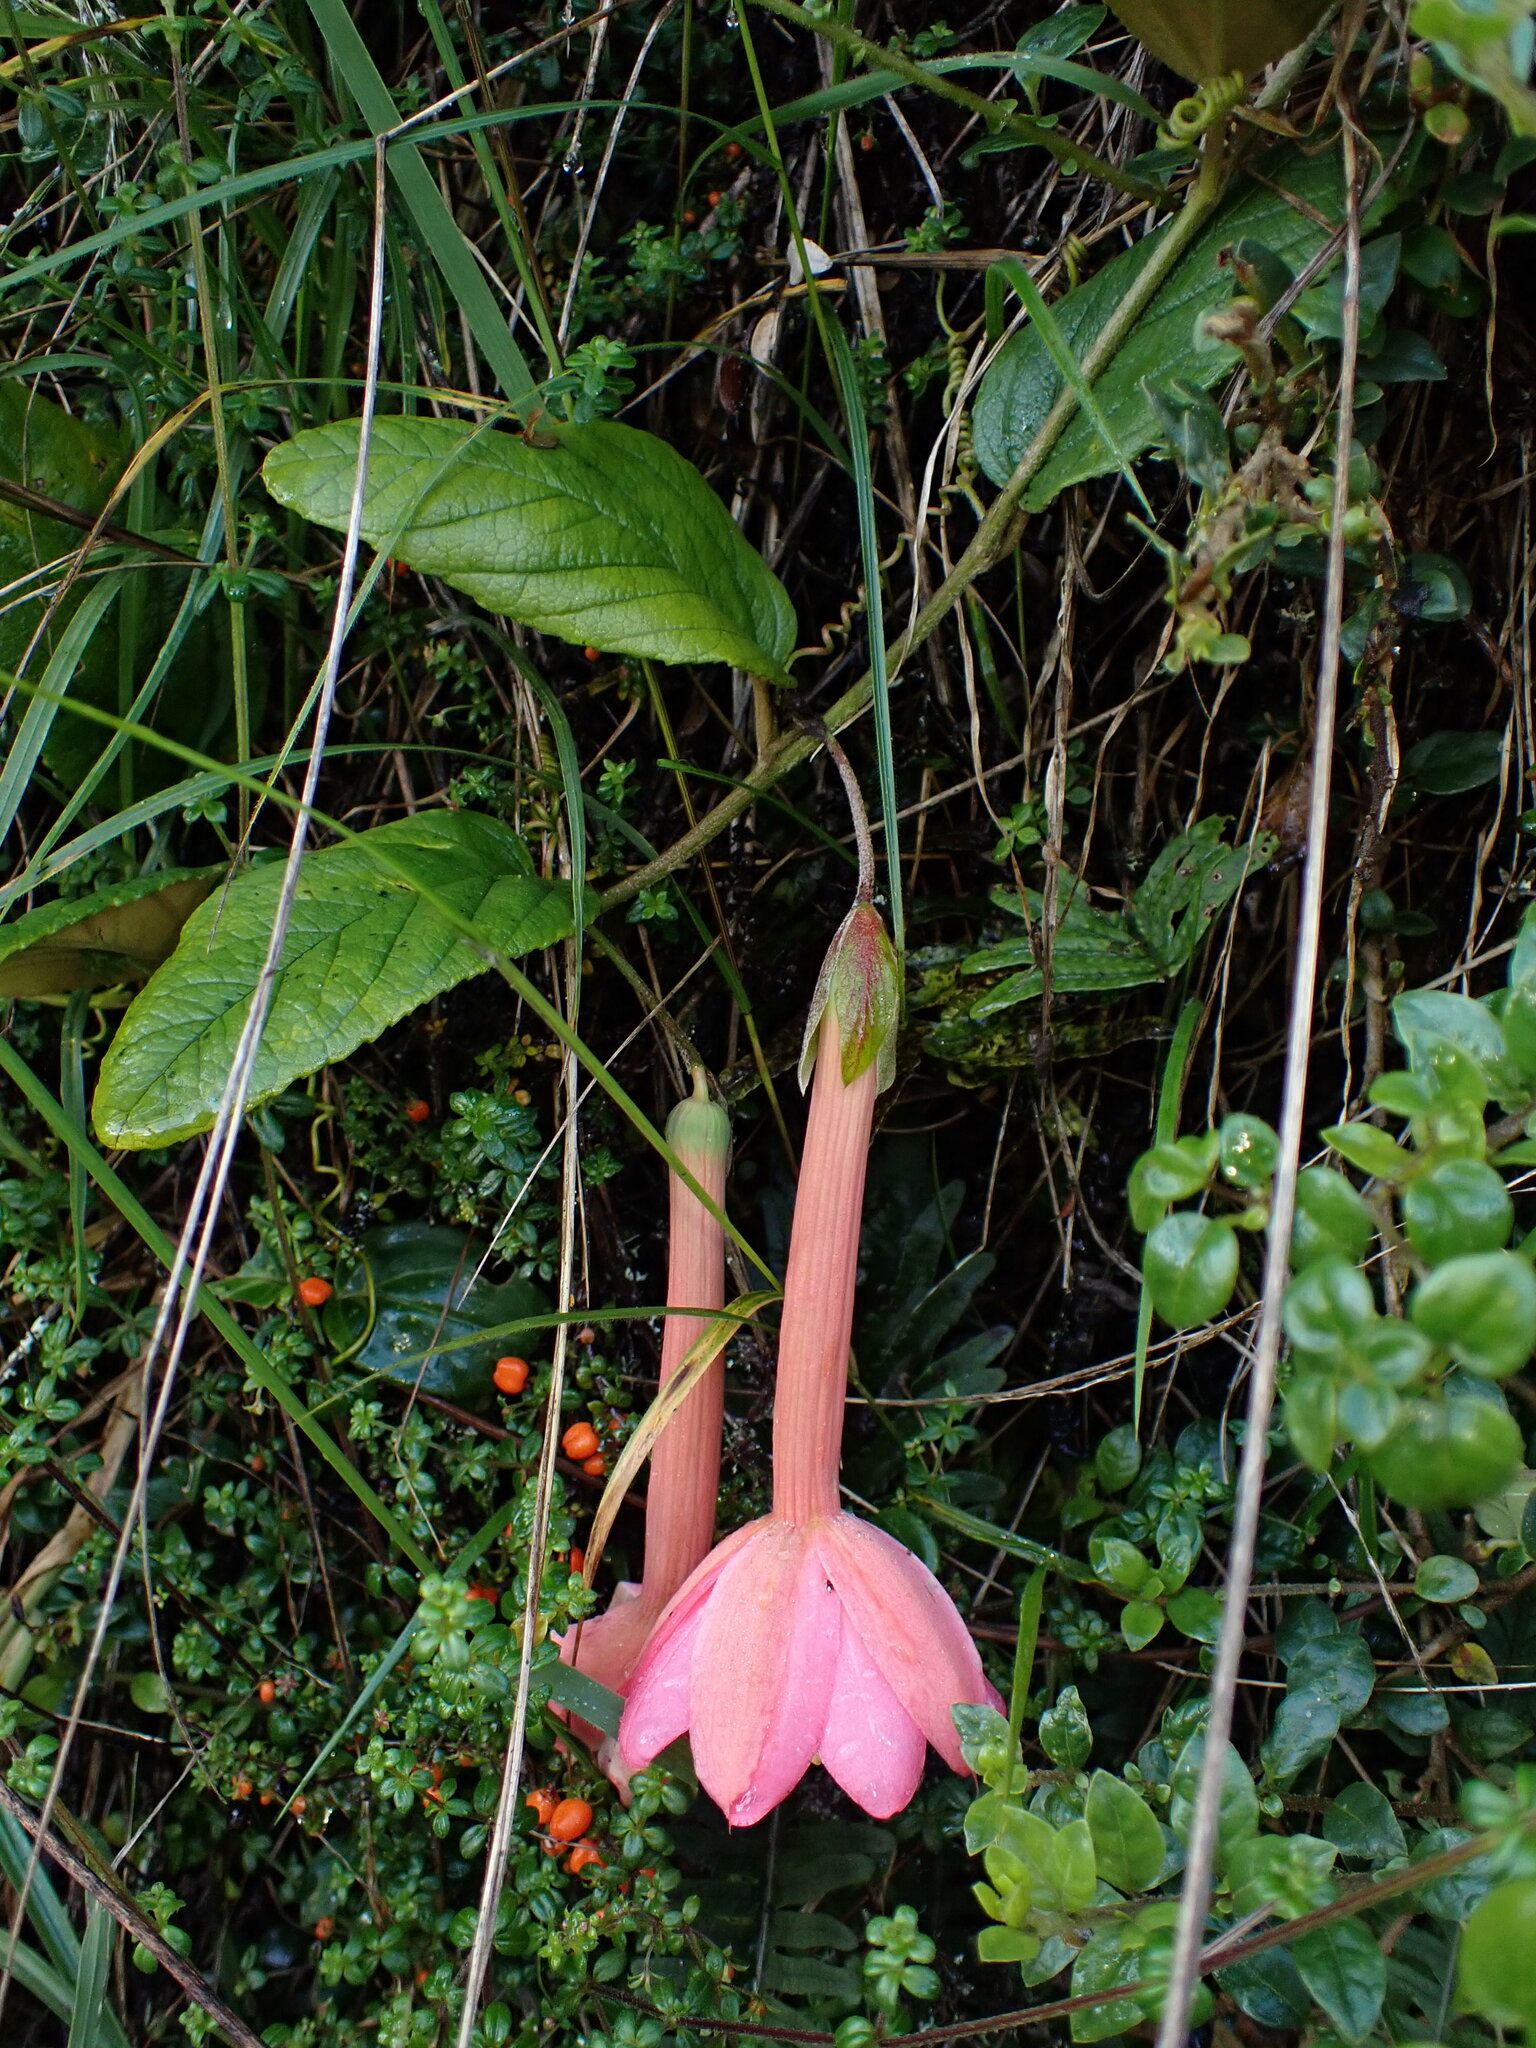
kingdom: Plantae
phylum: Tracheophyta
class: Magnoliopsida
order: Malpighiales
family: Passifloraceae
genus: Passiflora
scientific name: Passiflora adulterina
